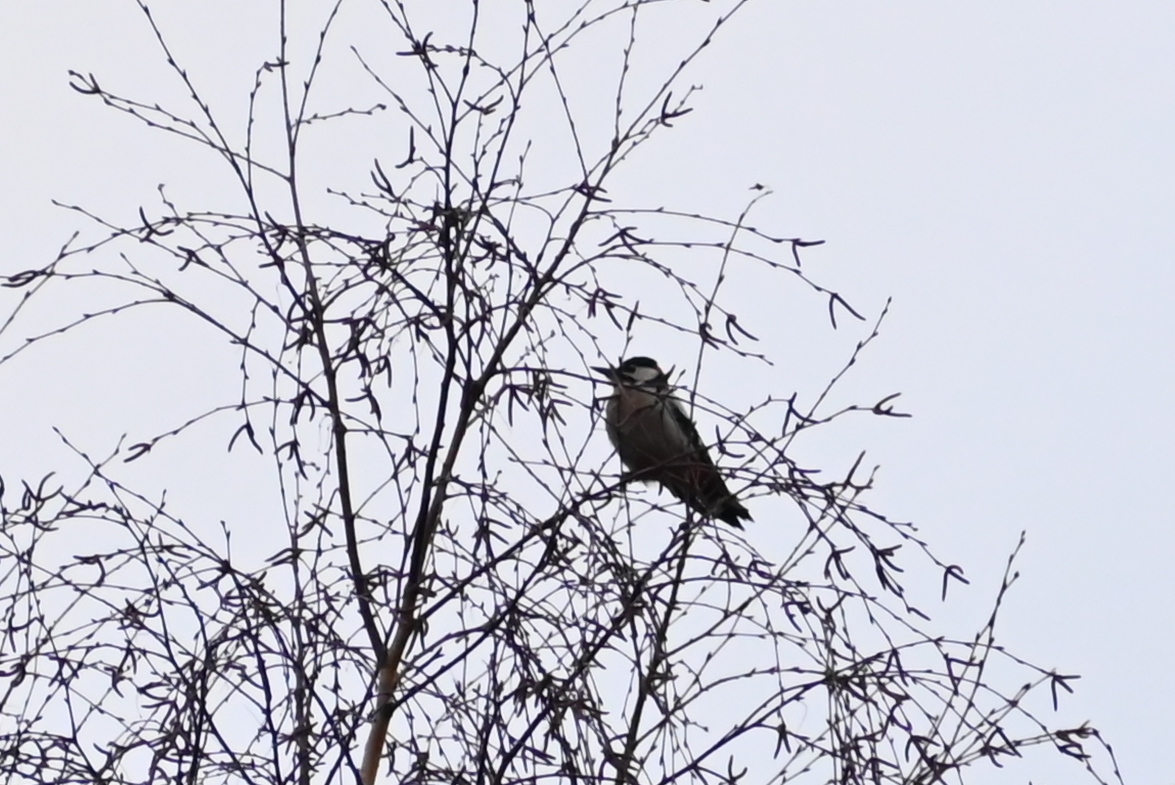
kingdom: Animalia
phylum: Chordata
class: Aves
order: Piciformes
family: Picidae
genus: Dendrocopos
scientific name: Dendrocopos major
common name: Great spotted woodpecker
